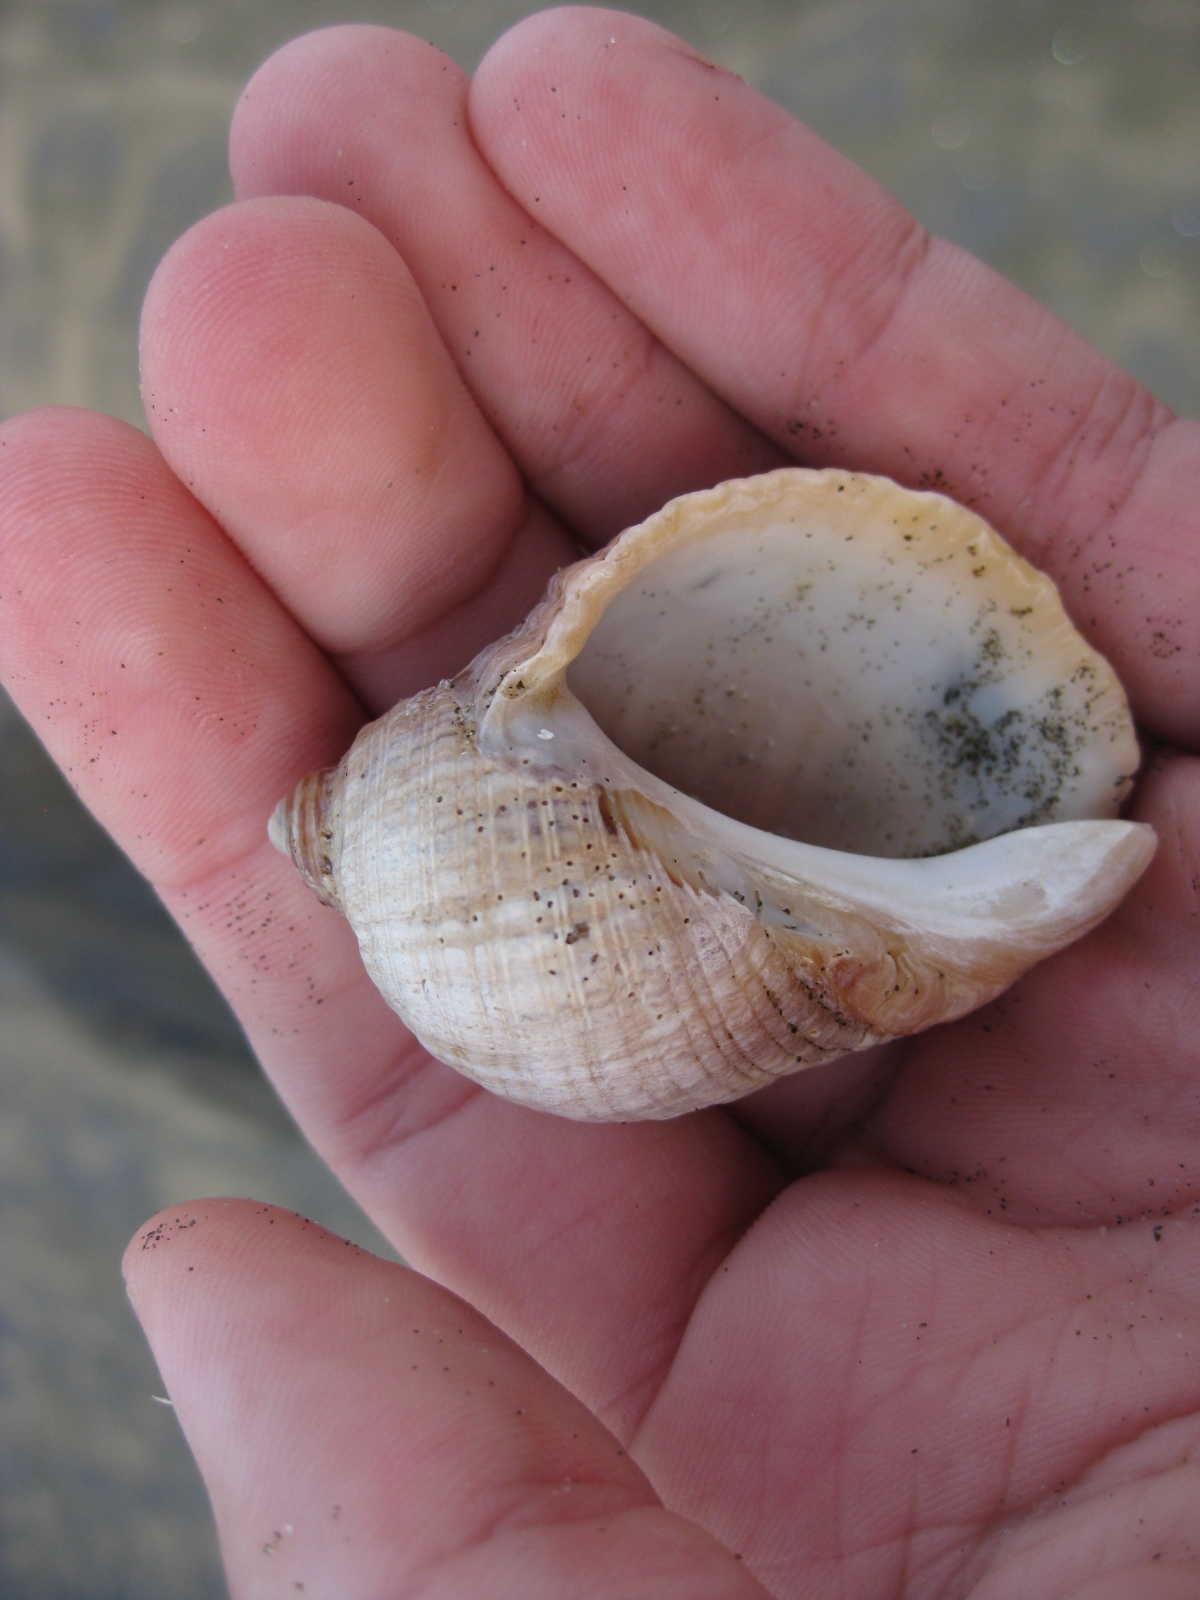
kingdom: Animalia
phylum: Mollusca
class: Gastropoda
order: Neogastropoda
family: Muricidae
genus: Dicathais
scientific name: Dicathais orbita
